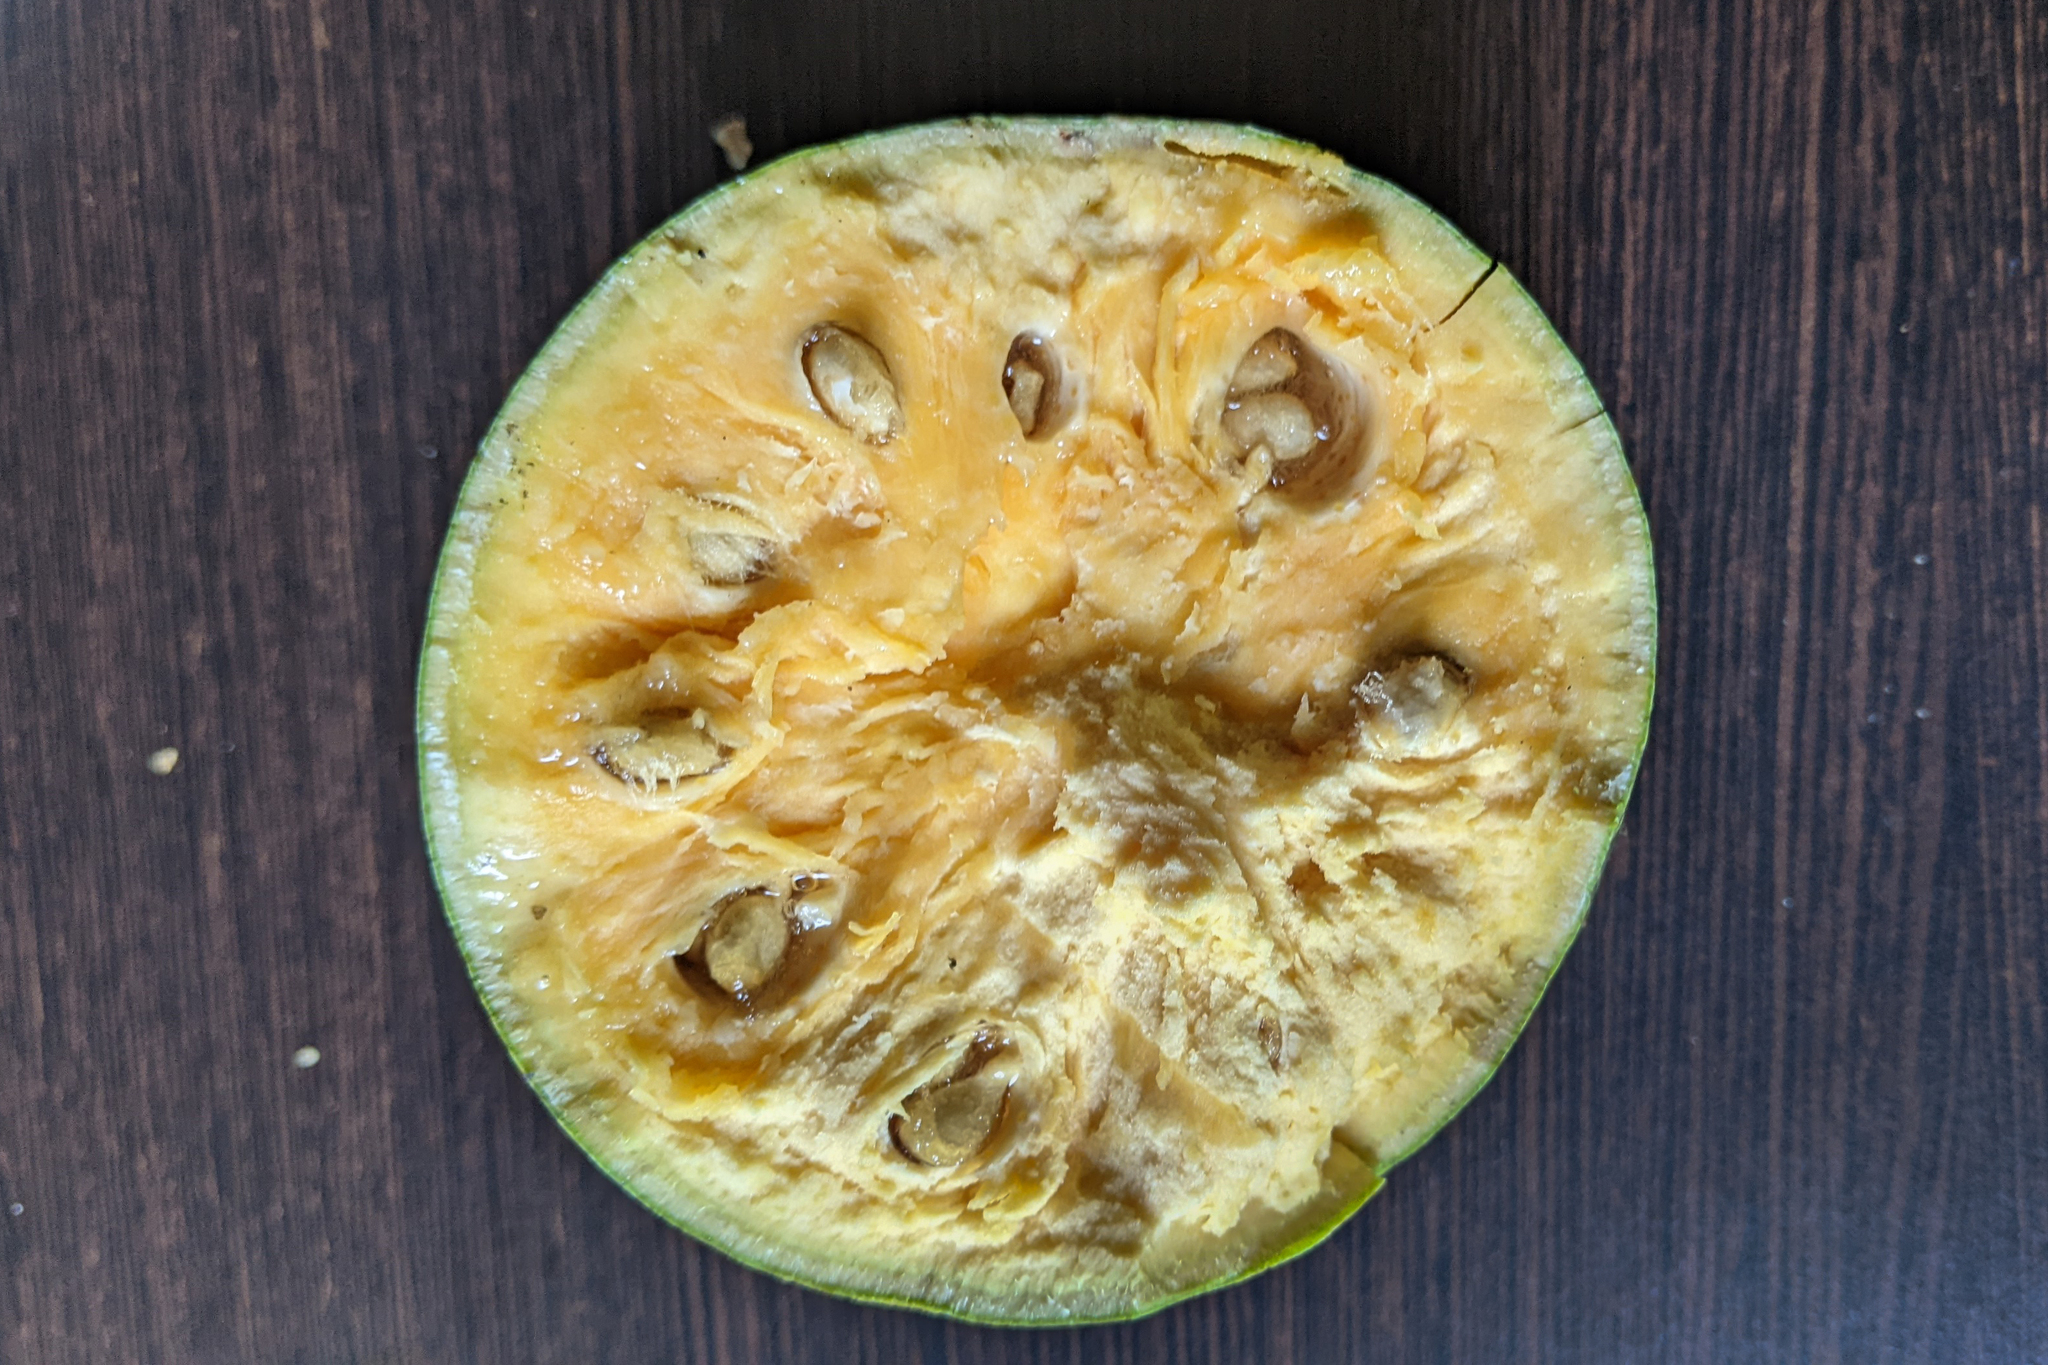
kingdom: Plantae
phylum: Tracheophyta
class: Magnoliopsida
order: Sapindales
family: Rutaceae
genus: Aegle
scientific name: Aegle marmelos
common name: Bael
